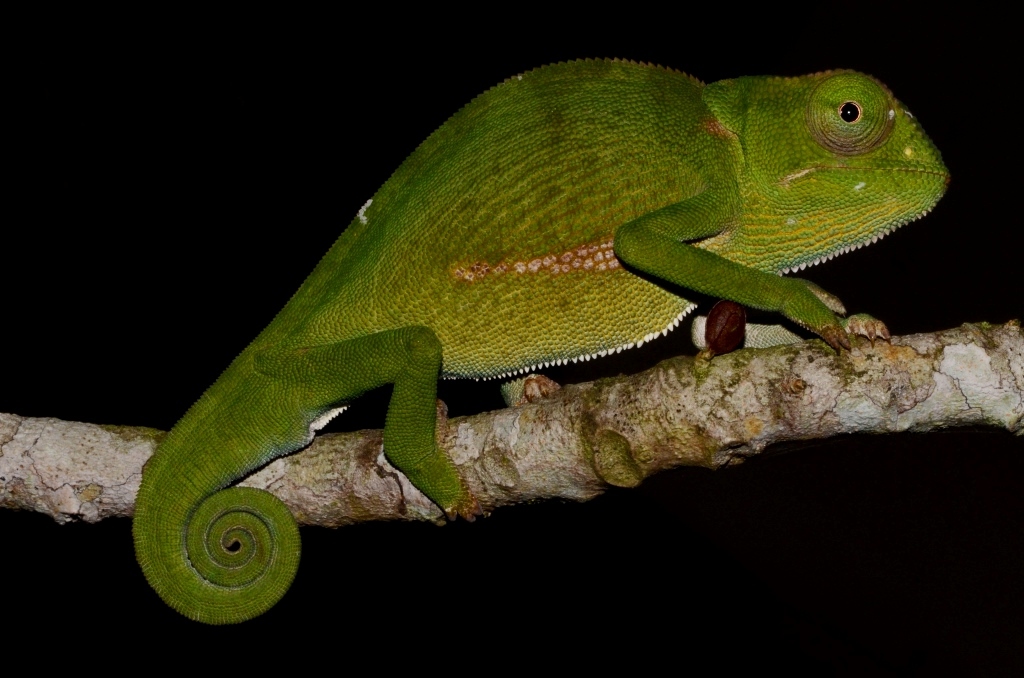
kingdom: Animalia
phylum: Chordata
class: Squamata
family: Chamaeleonidae
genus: Chamaeleo
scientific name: Chamaeleo dilepis
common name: Flapneck chameleon
